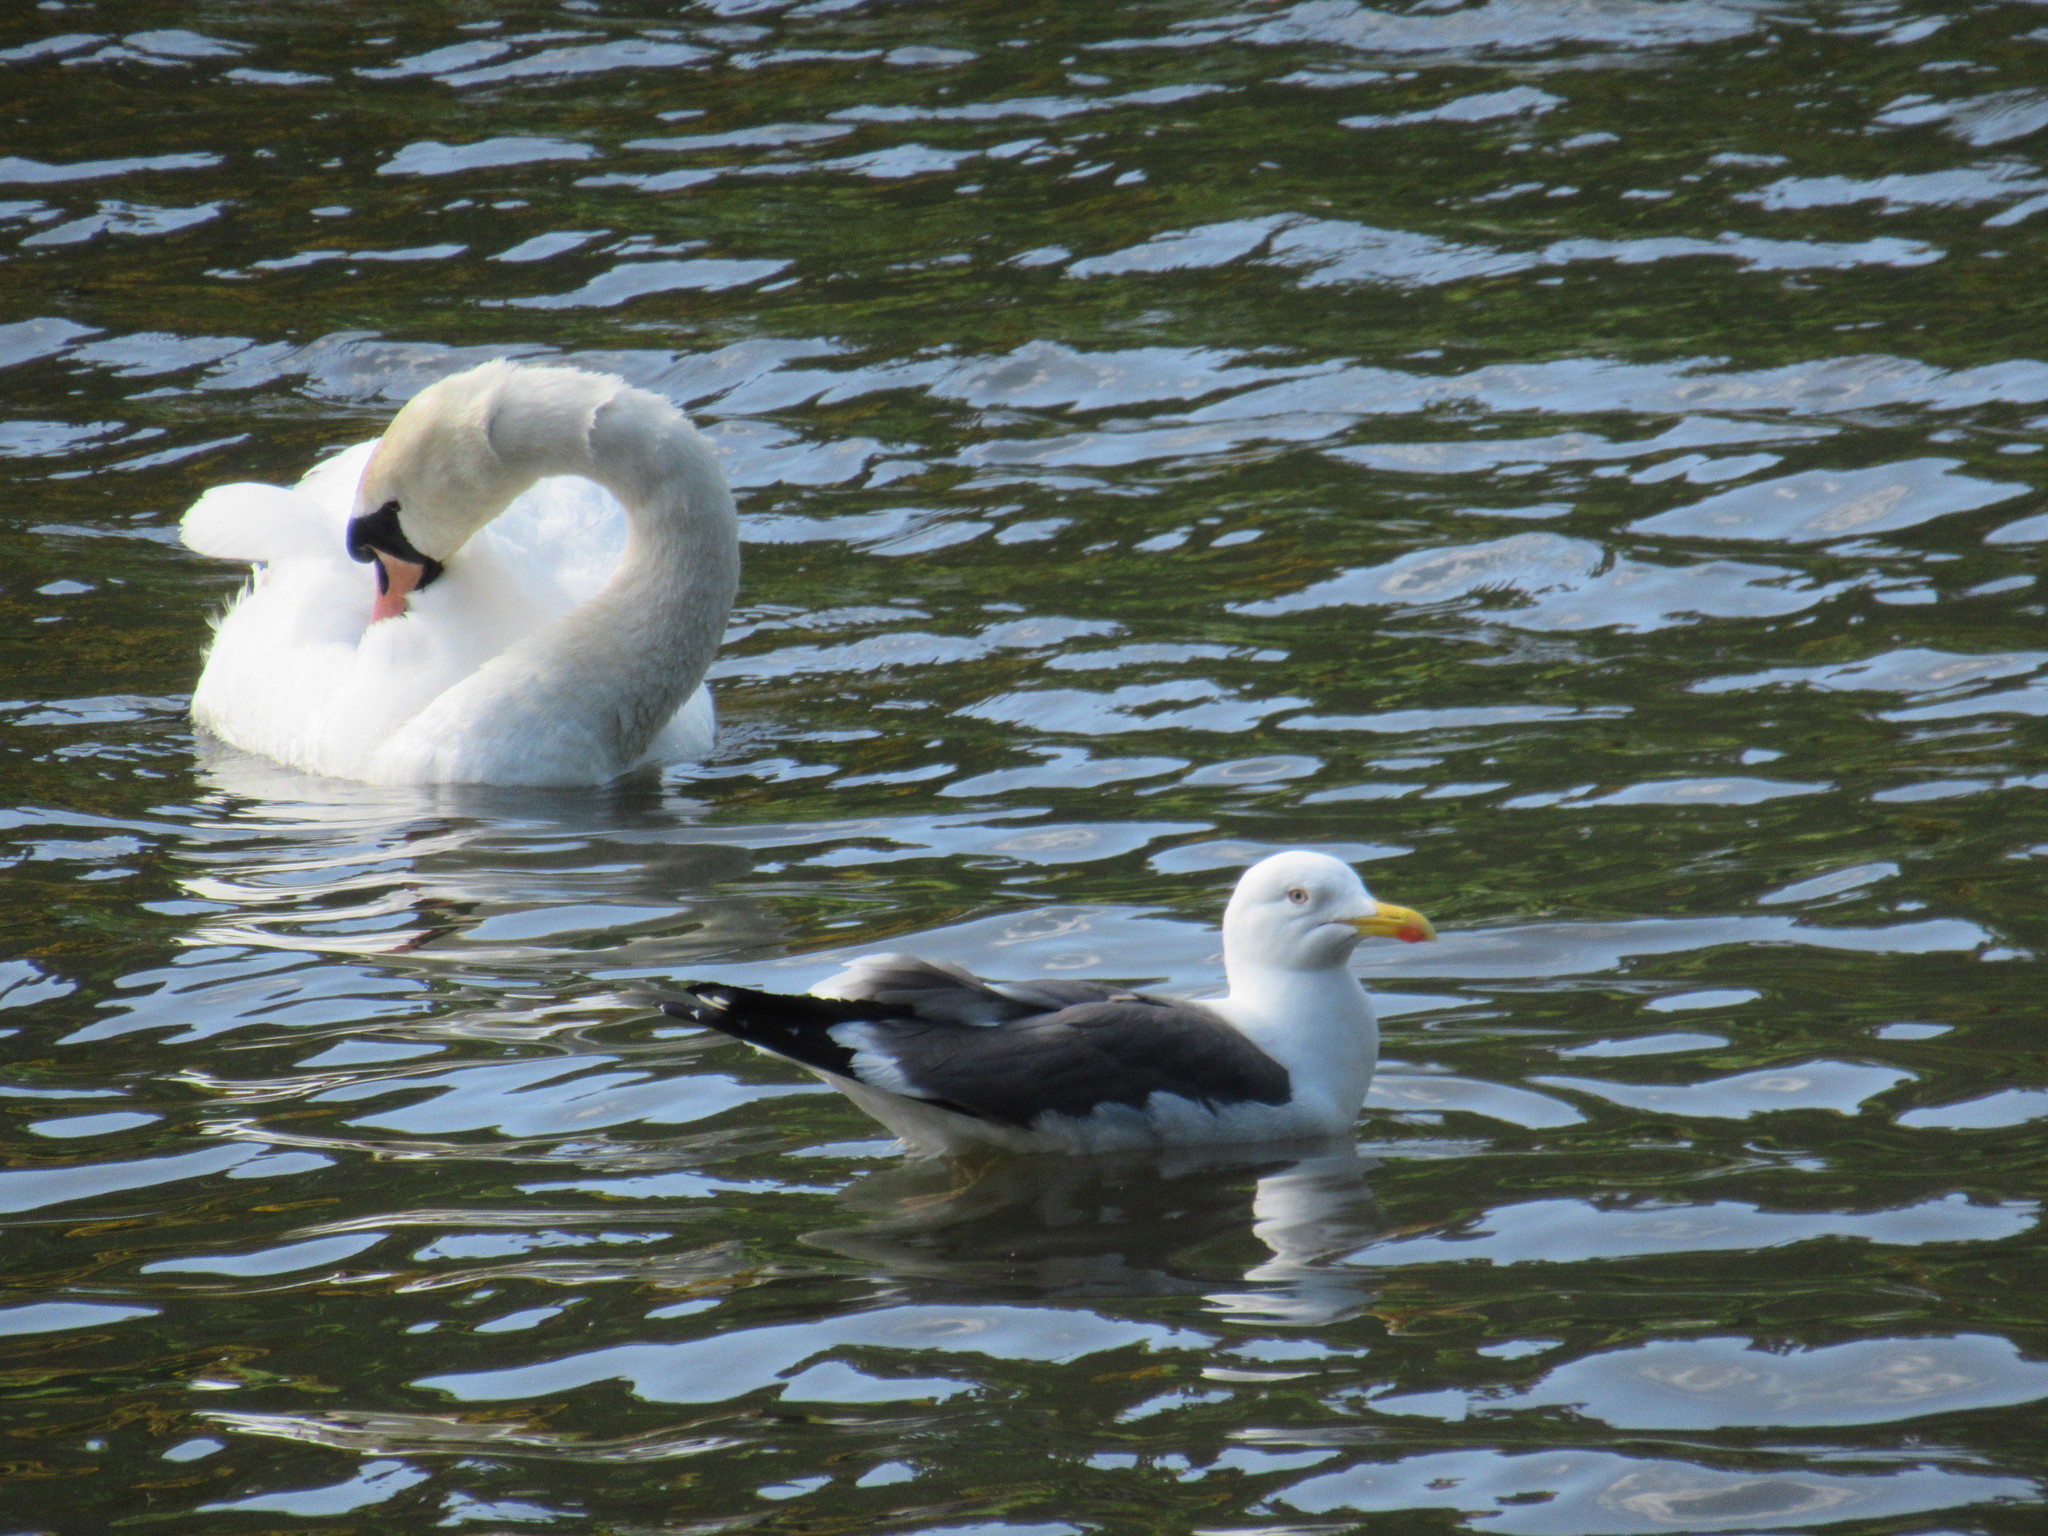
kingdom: Animalia
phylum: Chordata
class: Aves
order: Charadriiformes
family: Laridae
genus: Larus
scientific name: Larus fuscus
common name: Lesser black-backed gull
